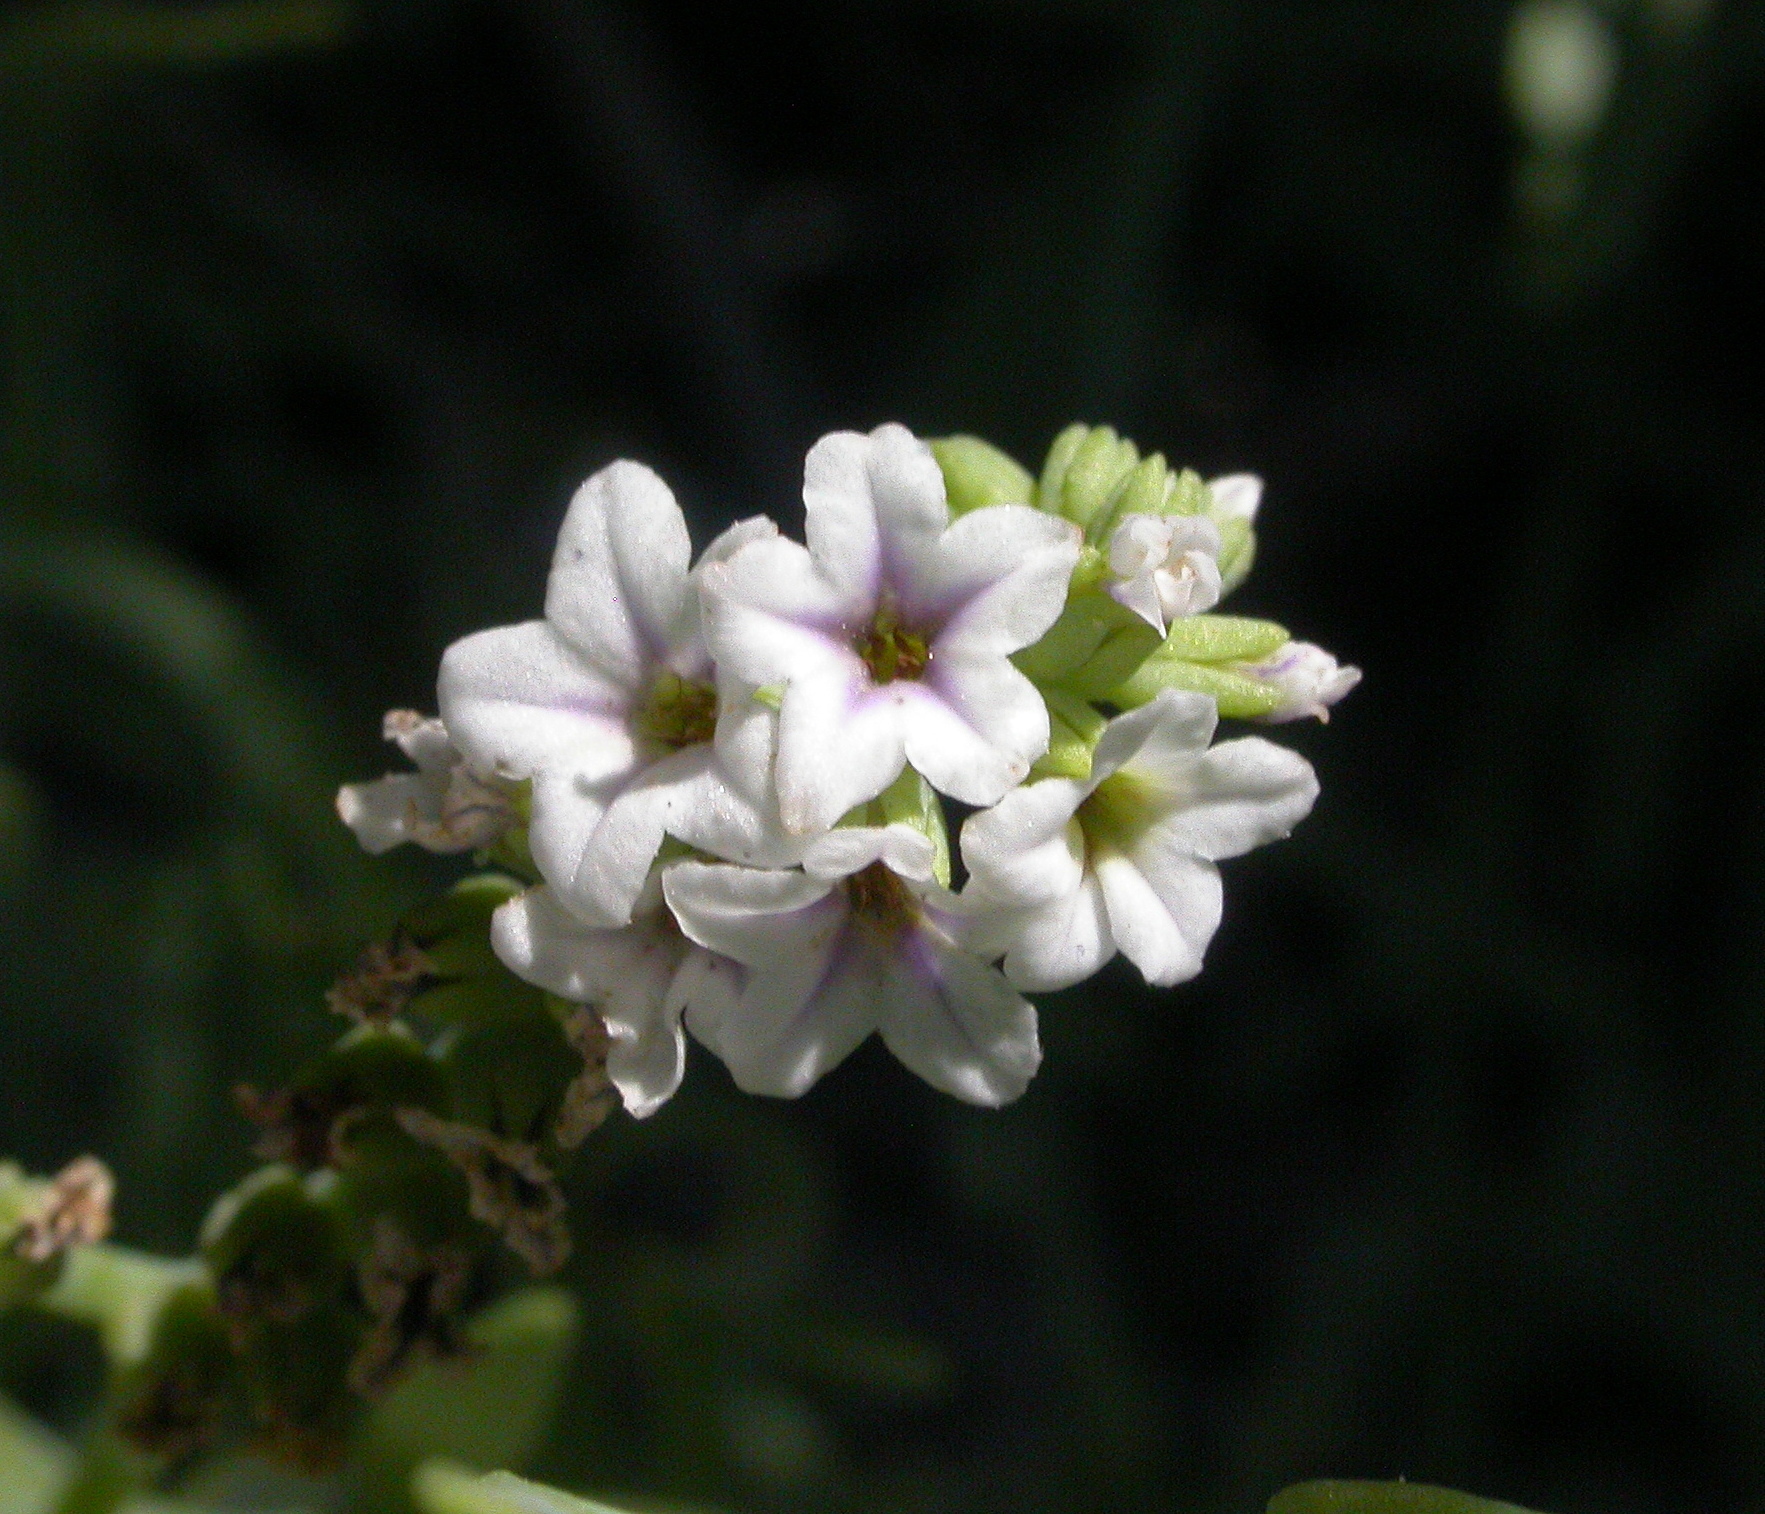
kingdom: Plantae
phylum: Tracheophyta
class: Magnoliopsida
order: Boraginales
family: Heliotropiaceae
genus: Heliotropium
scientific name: Heliotropium curassavicum
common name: Seaside heliotrope
